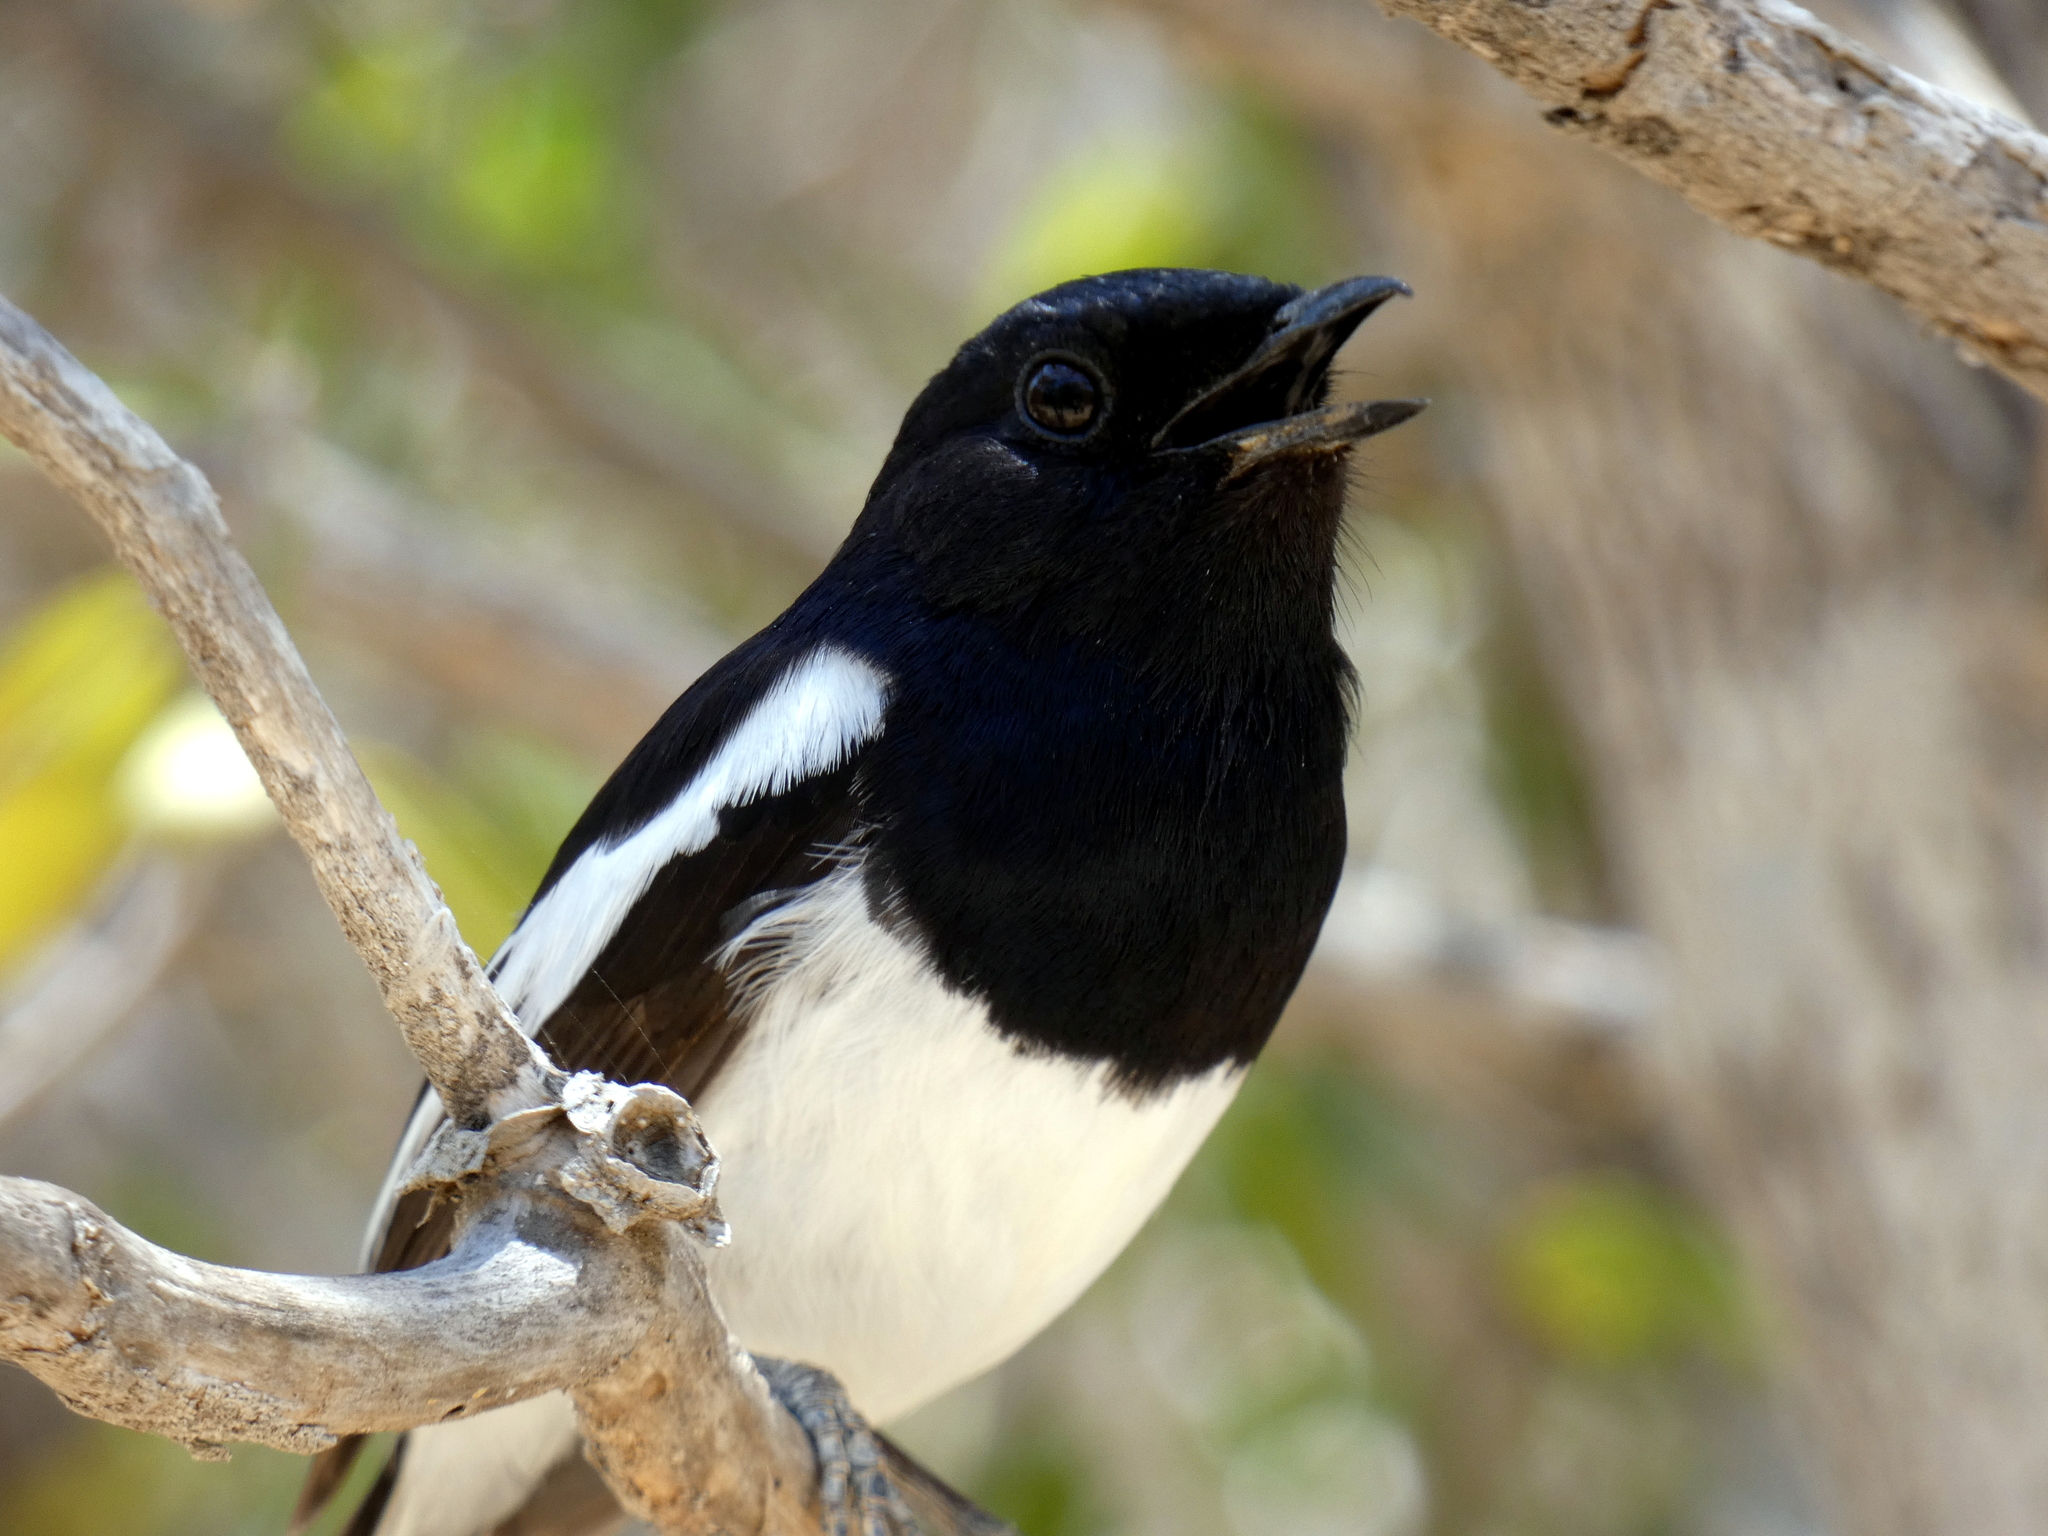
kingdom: Animalia
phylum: Chordata
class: Aves
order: Passeriformes
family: Muscicapidae
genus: Copsychus
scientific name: Copsychus albospecularis
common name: Madagascar magpie-robin
